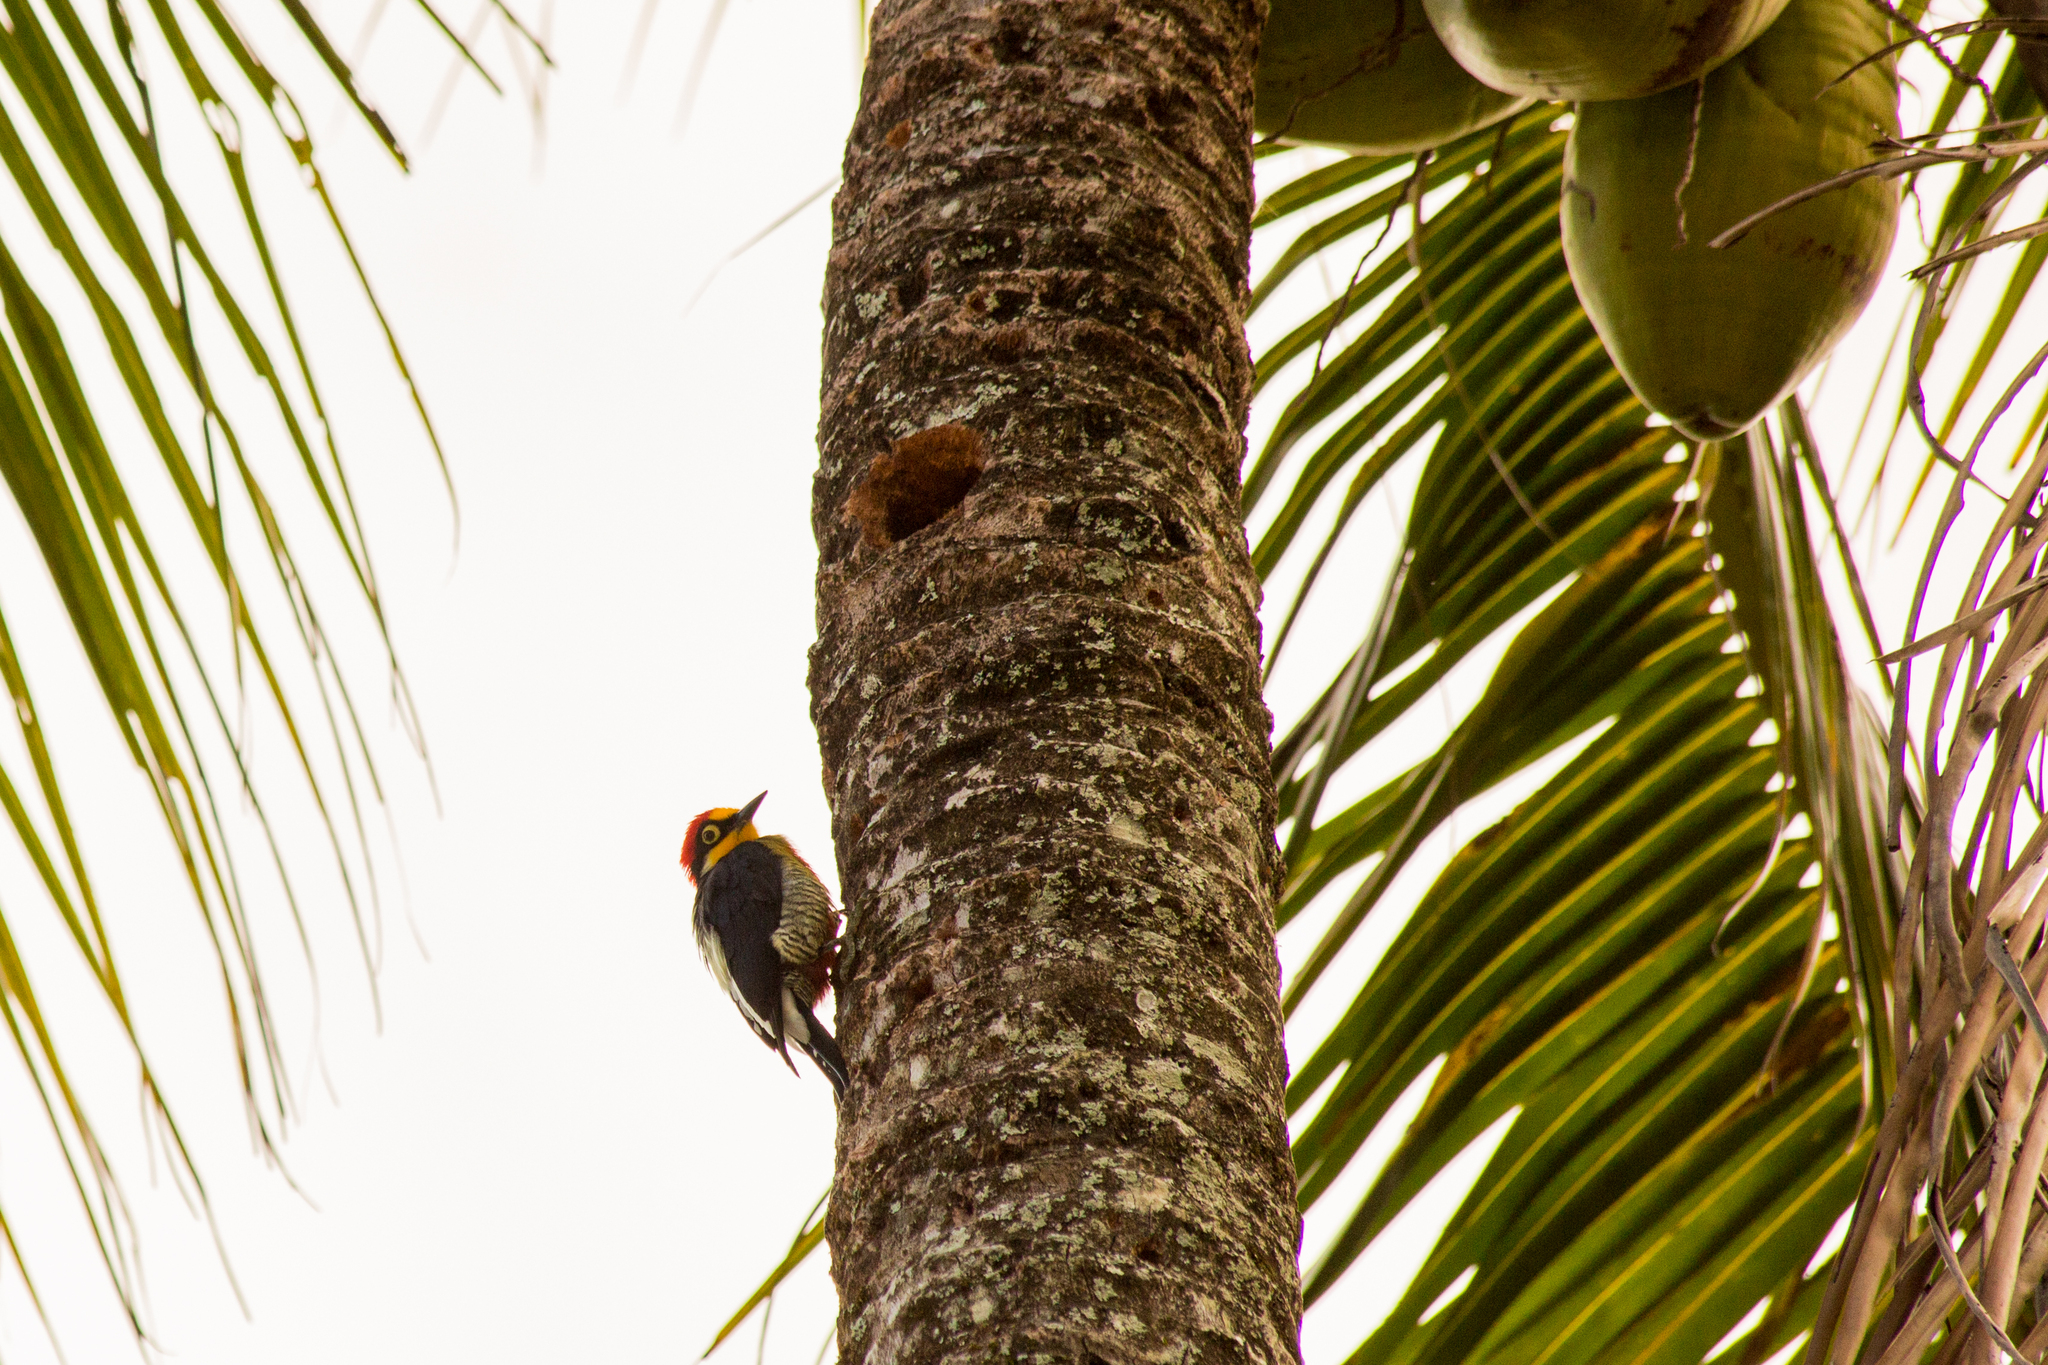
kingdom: Animalia
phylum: Chordata
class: Aves
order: Piciformes
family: Picidae
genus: Melanerpes
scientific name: Melanerpes flavifrons
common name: Yellow-fronted woodpecker
